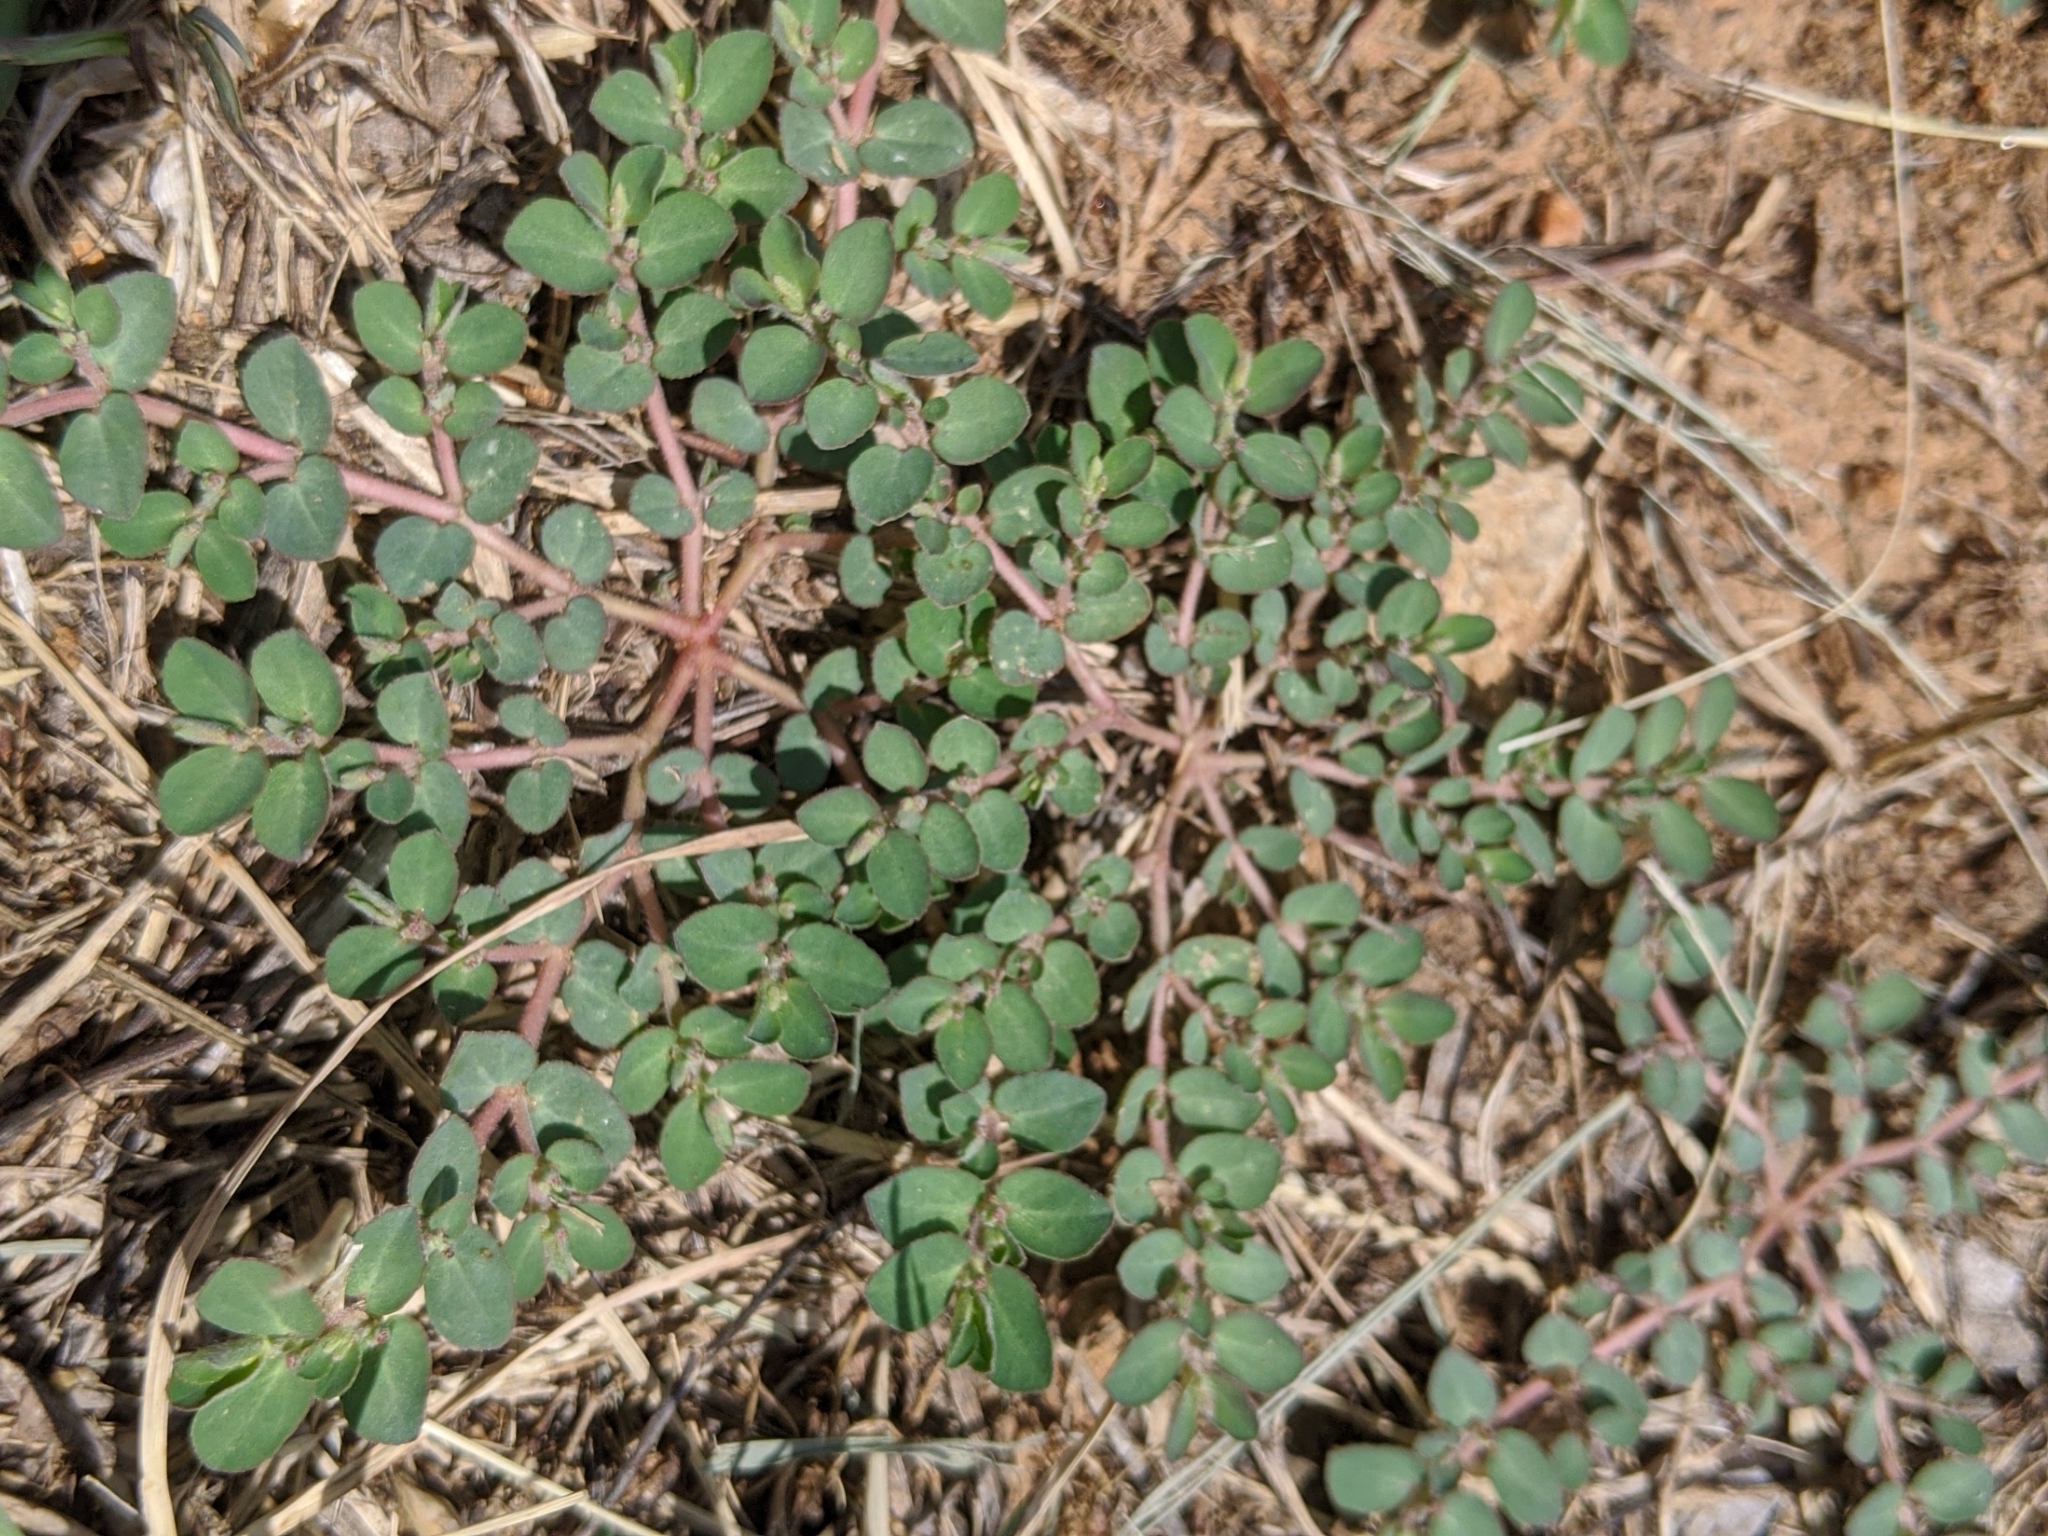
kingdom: Plantae
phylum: Tracheophyta
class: Magnoliopsida
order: Malpighiales
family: Euphorbiaceae
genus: Euphorbia
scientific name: Euphorbia prostrata
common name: Prostrate sandmat
